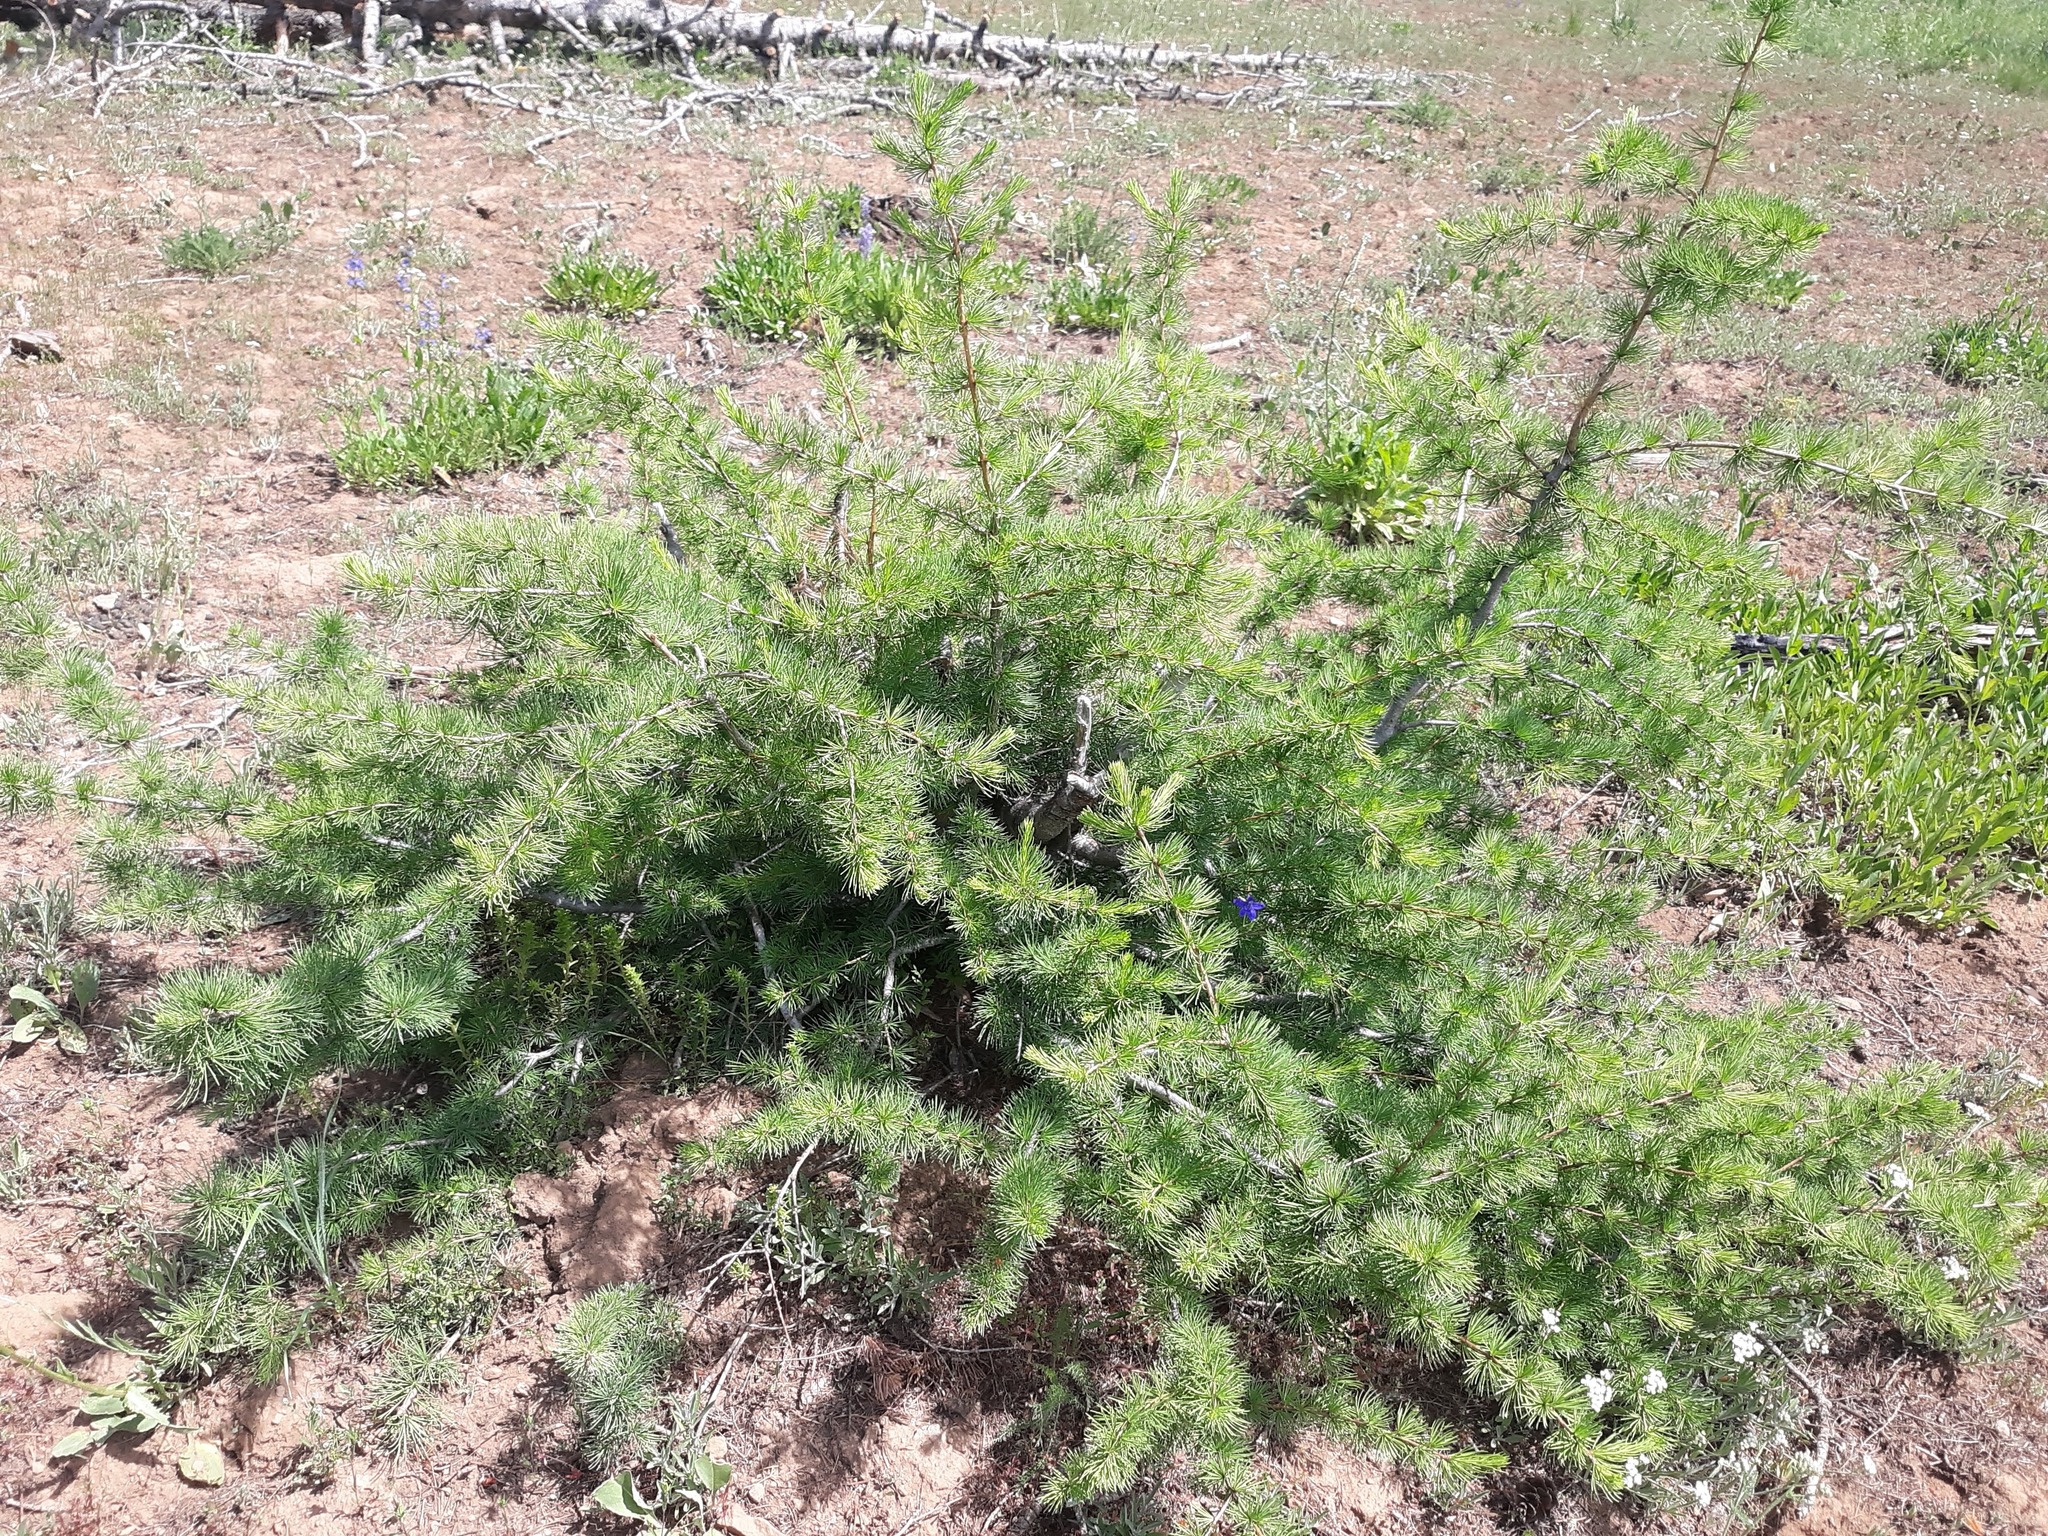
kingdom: Plantae
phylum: Tracheophyta
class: Pinopsida
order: Pinales
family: Pinaceae
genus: Larix
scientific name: Larix occidentalis
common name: Western larch
